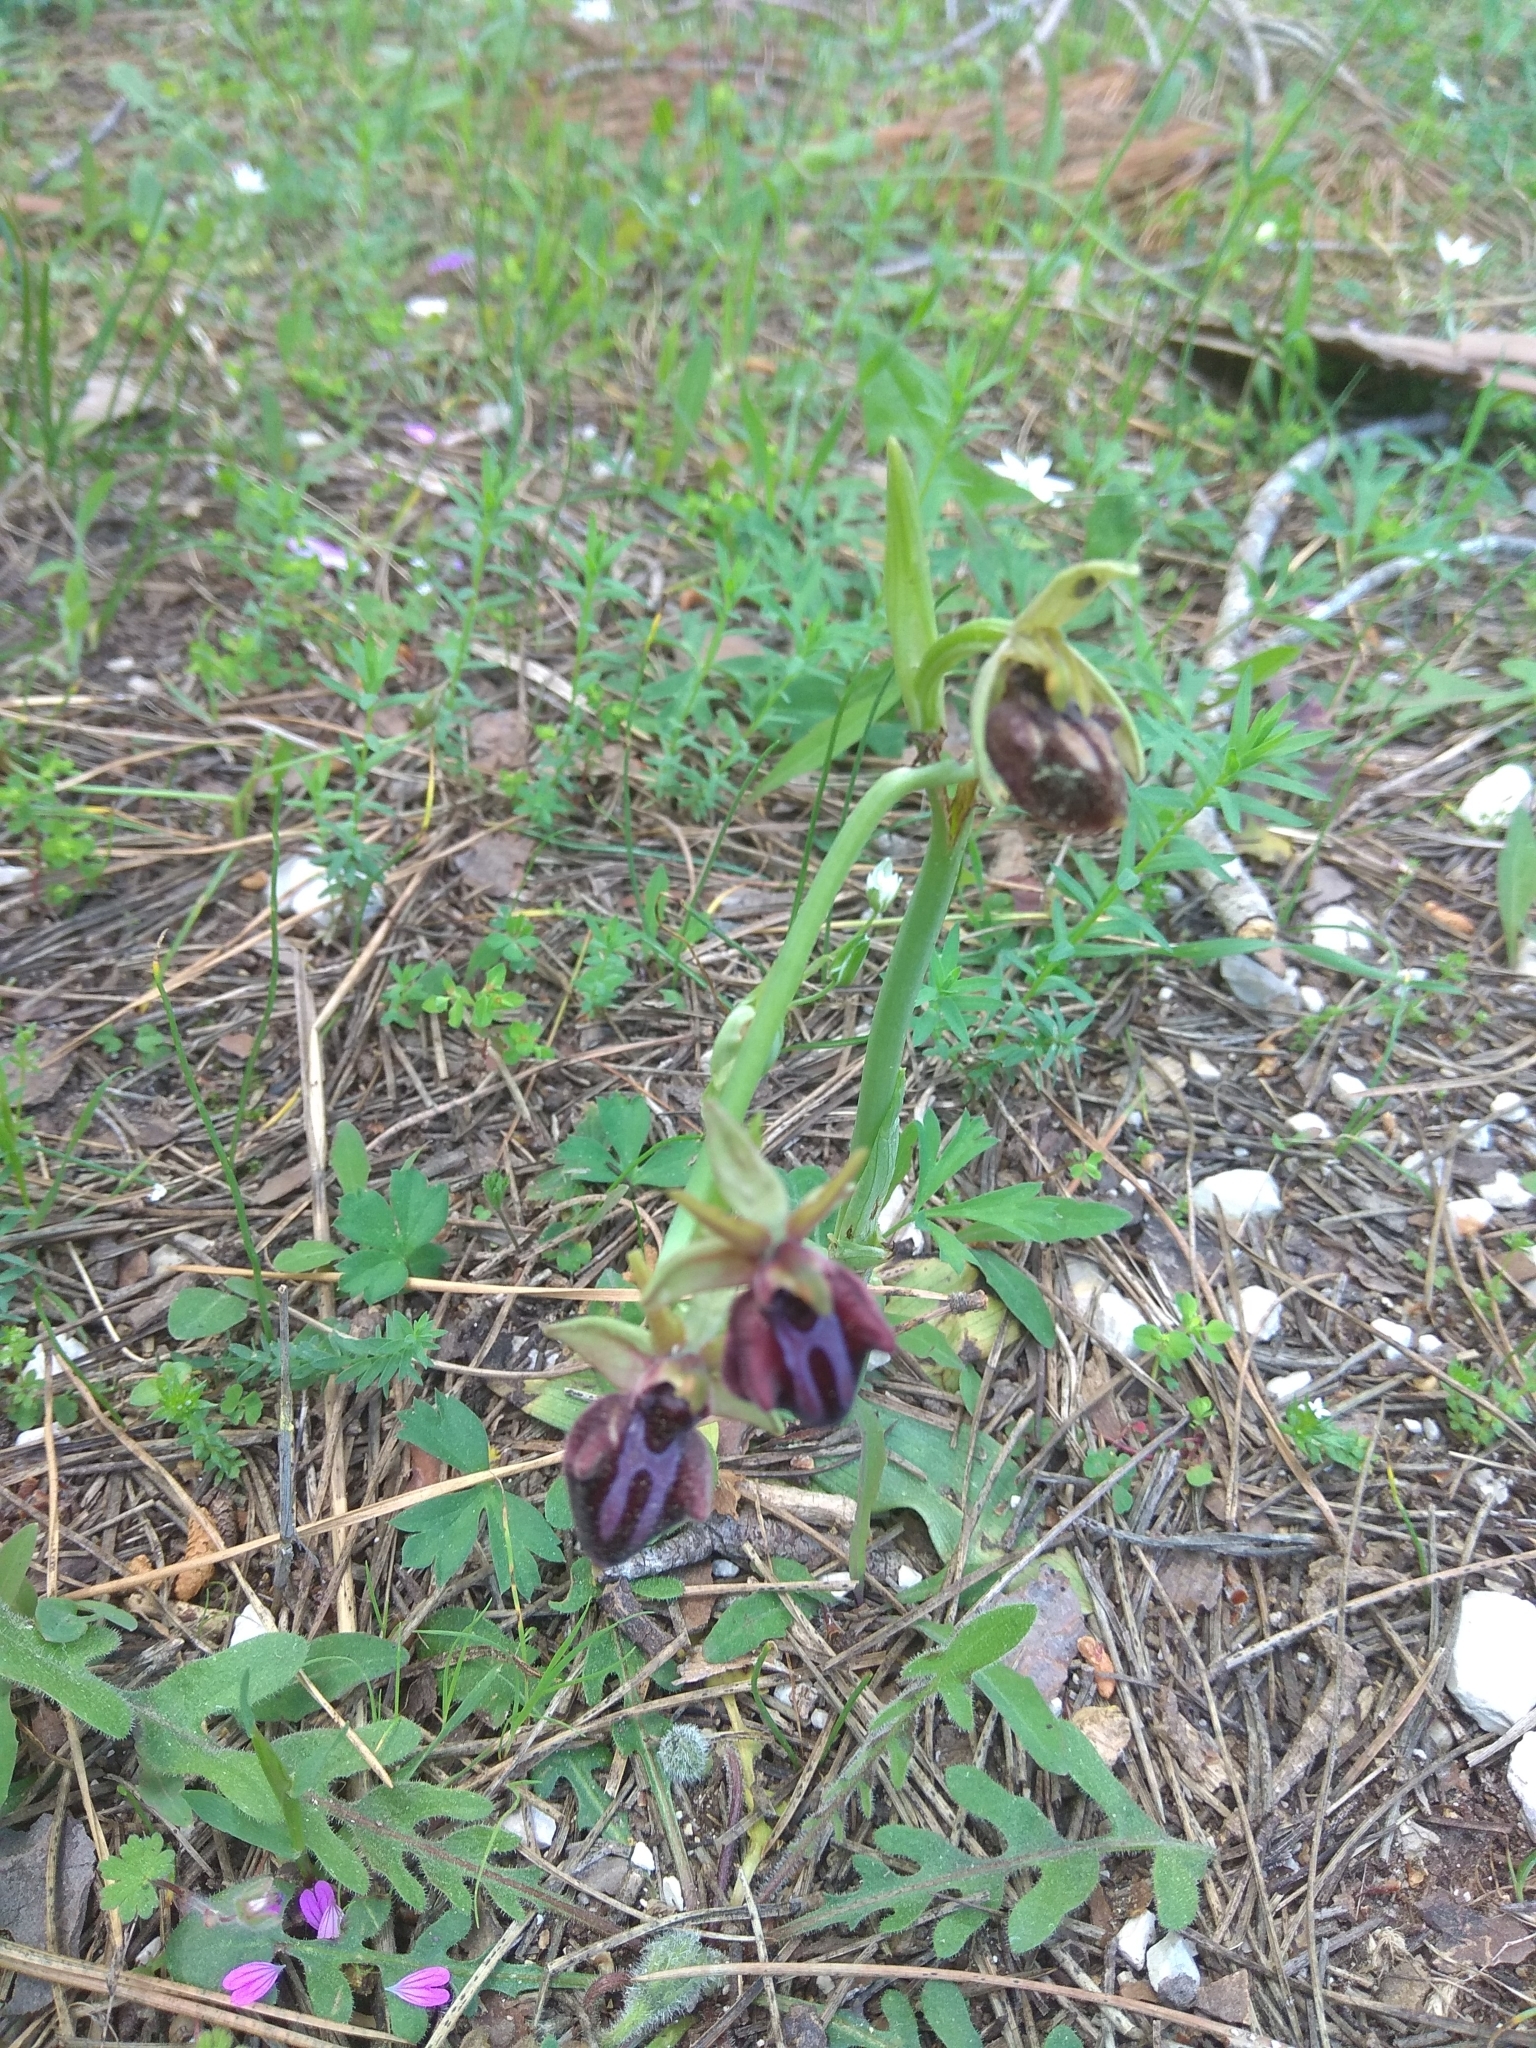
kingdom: Plantae
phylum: Tracheophyta
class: Liliopsida
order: Asparagales
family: Orchidaceae
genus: Ophrys
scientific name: Ophrys sphegodes
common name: Early spider-orchid
